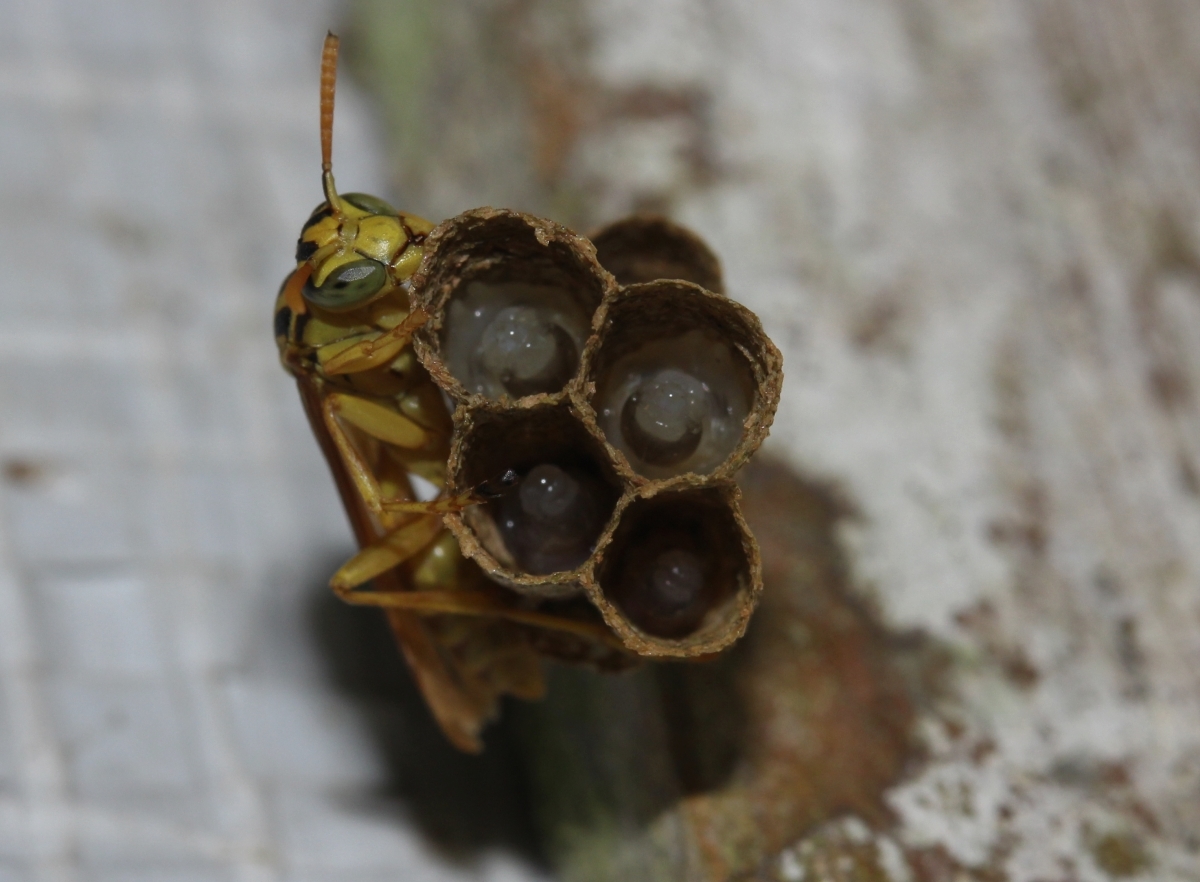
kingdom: Animalia
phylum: Arthropoda
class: Insecta
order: Hymenoptera
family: Vespidae
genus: Mischocyttarus
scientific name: Mischocyttarus
